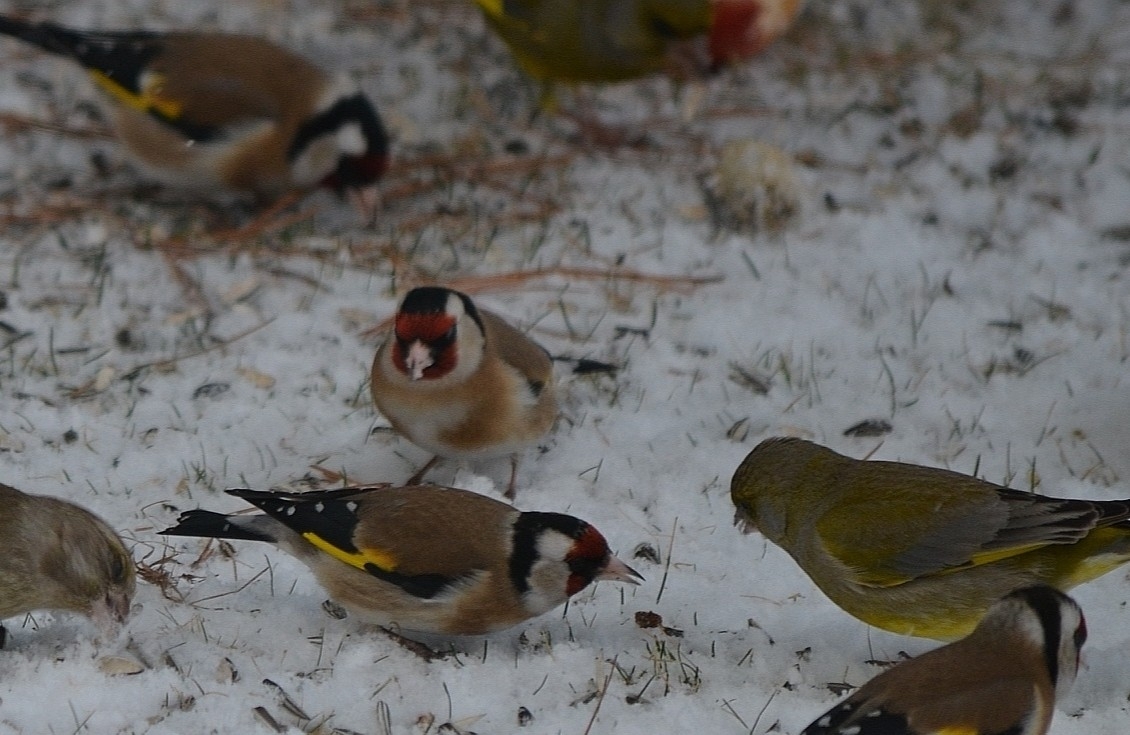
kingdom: Animalia
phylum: Chordata
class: Aves
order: Passeriformes
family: Fringillidae
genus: Carduelis
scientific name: Carduelis carduelis
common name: European goldfinch
